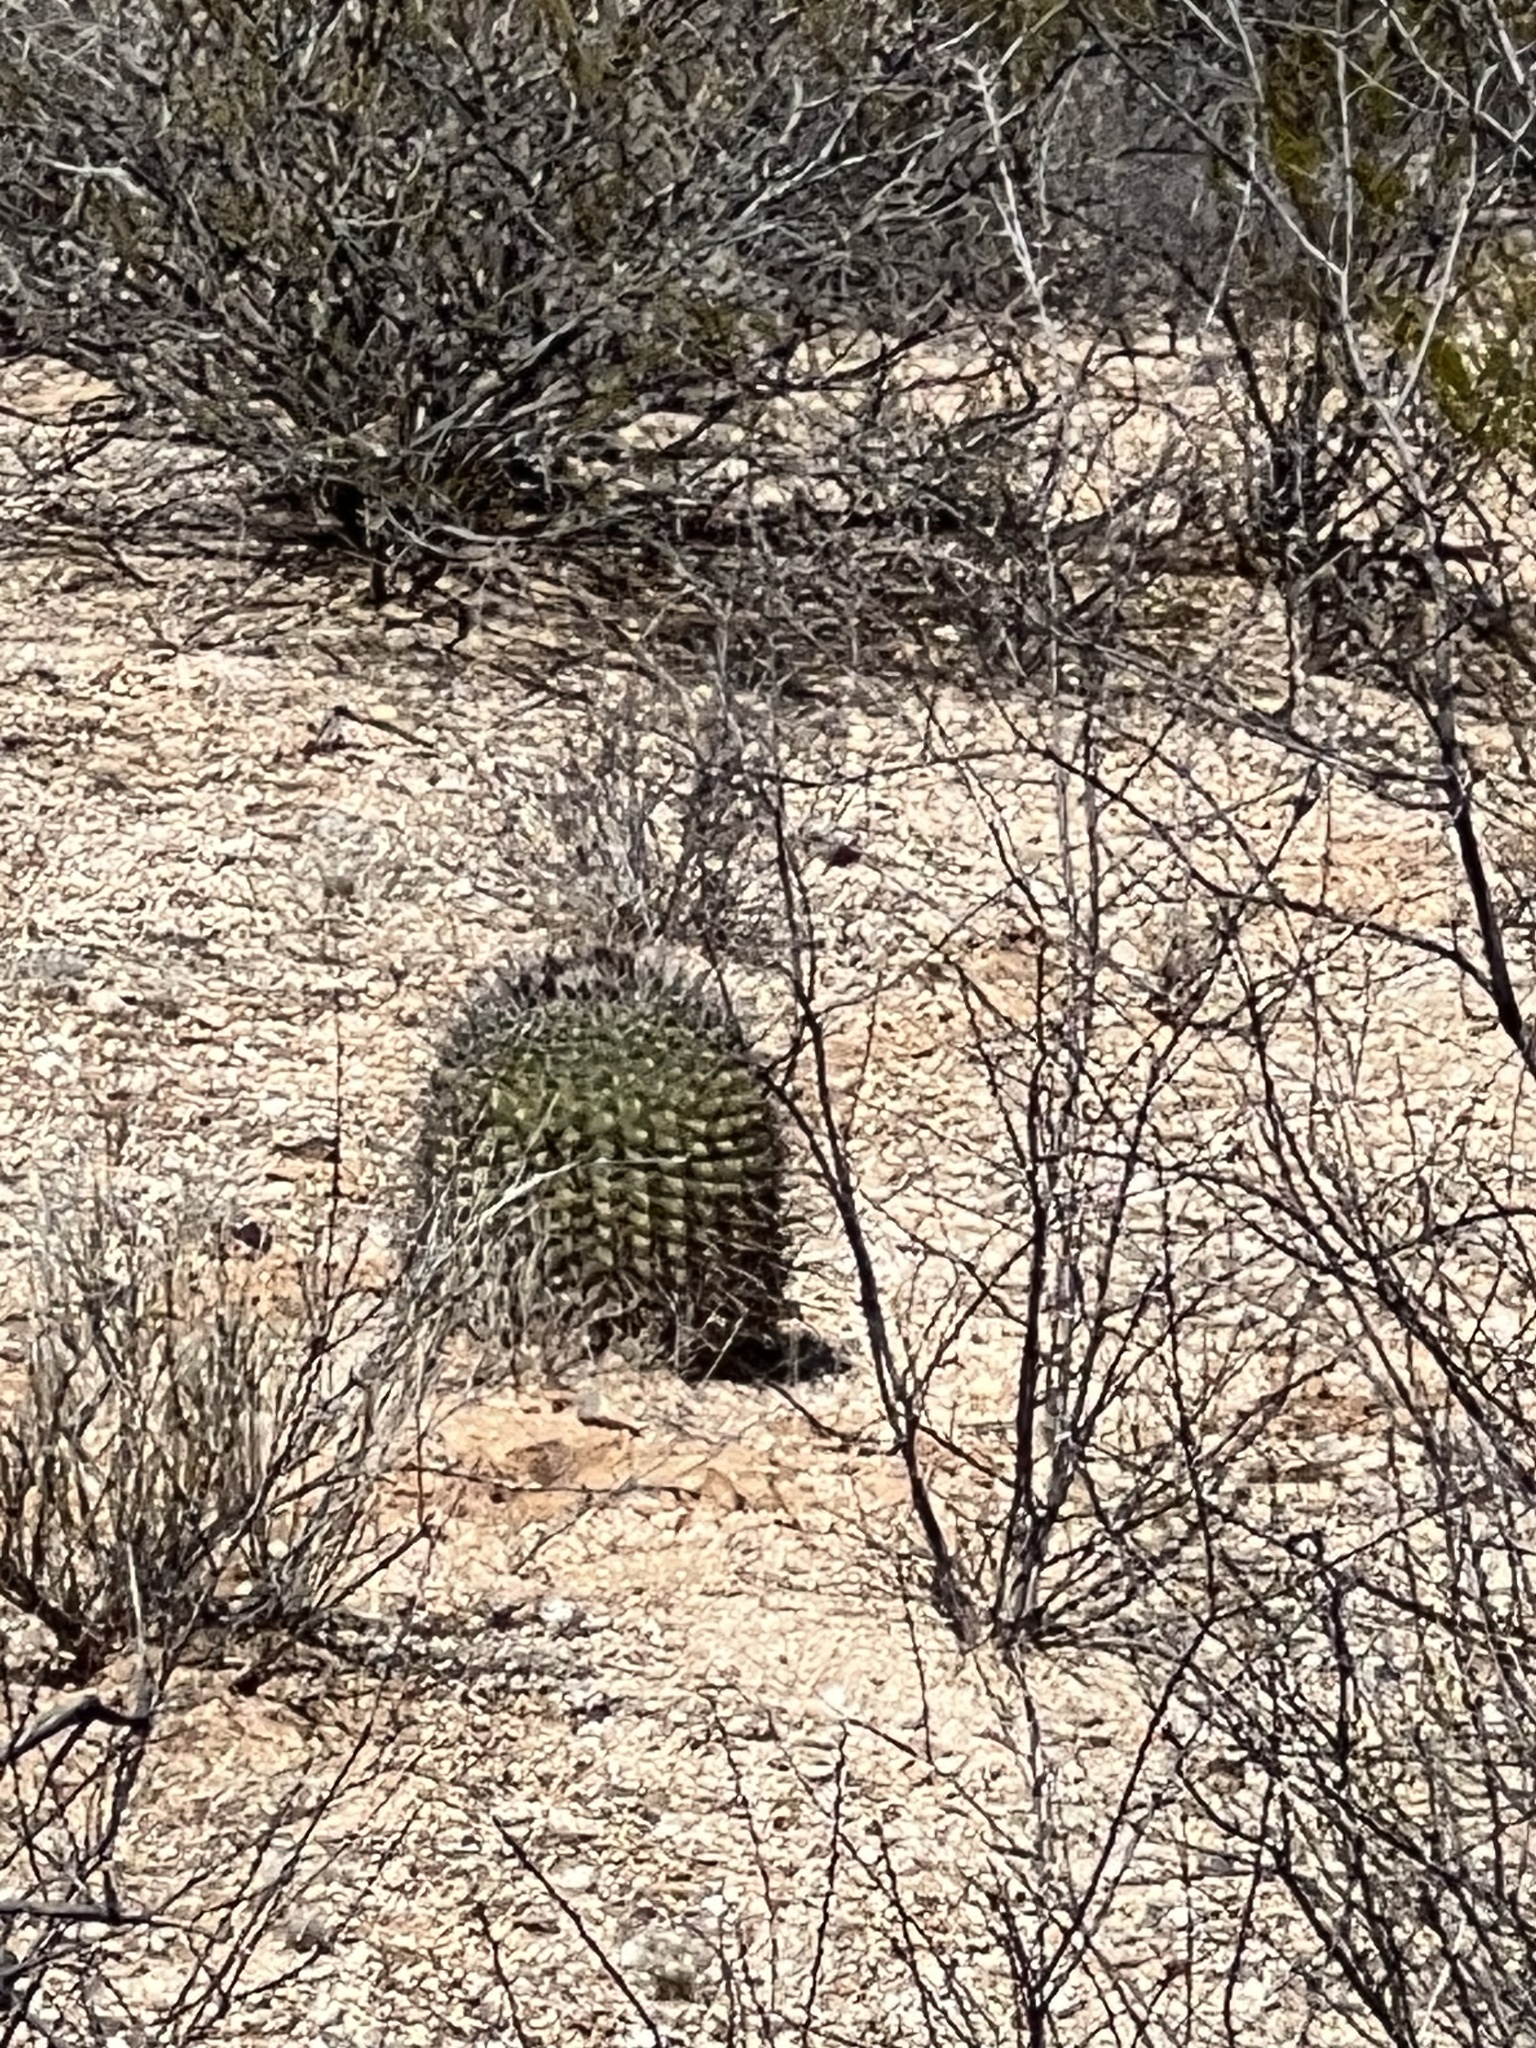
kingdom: Plantae
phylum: Tracheophyta
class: Magnoliopsida
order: Caryophyllales
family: Cactaceae
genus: Ferocactus
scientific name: Ferocactus wislizeni
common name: Candy barrel cactus
